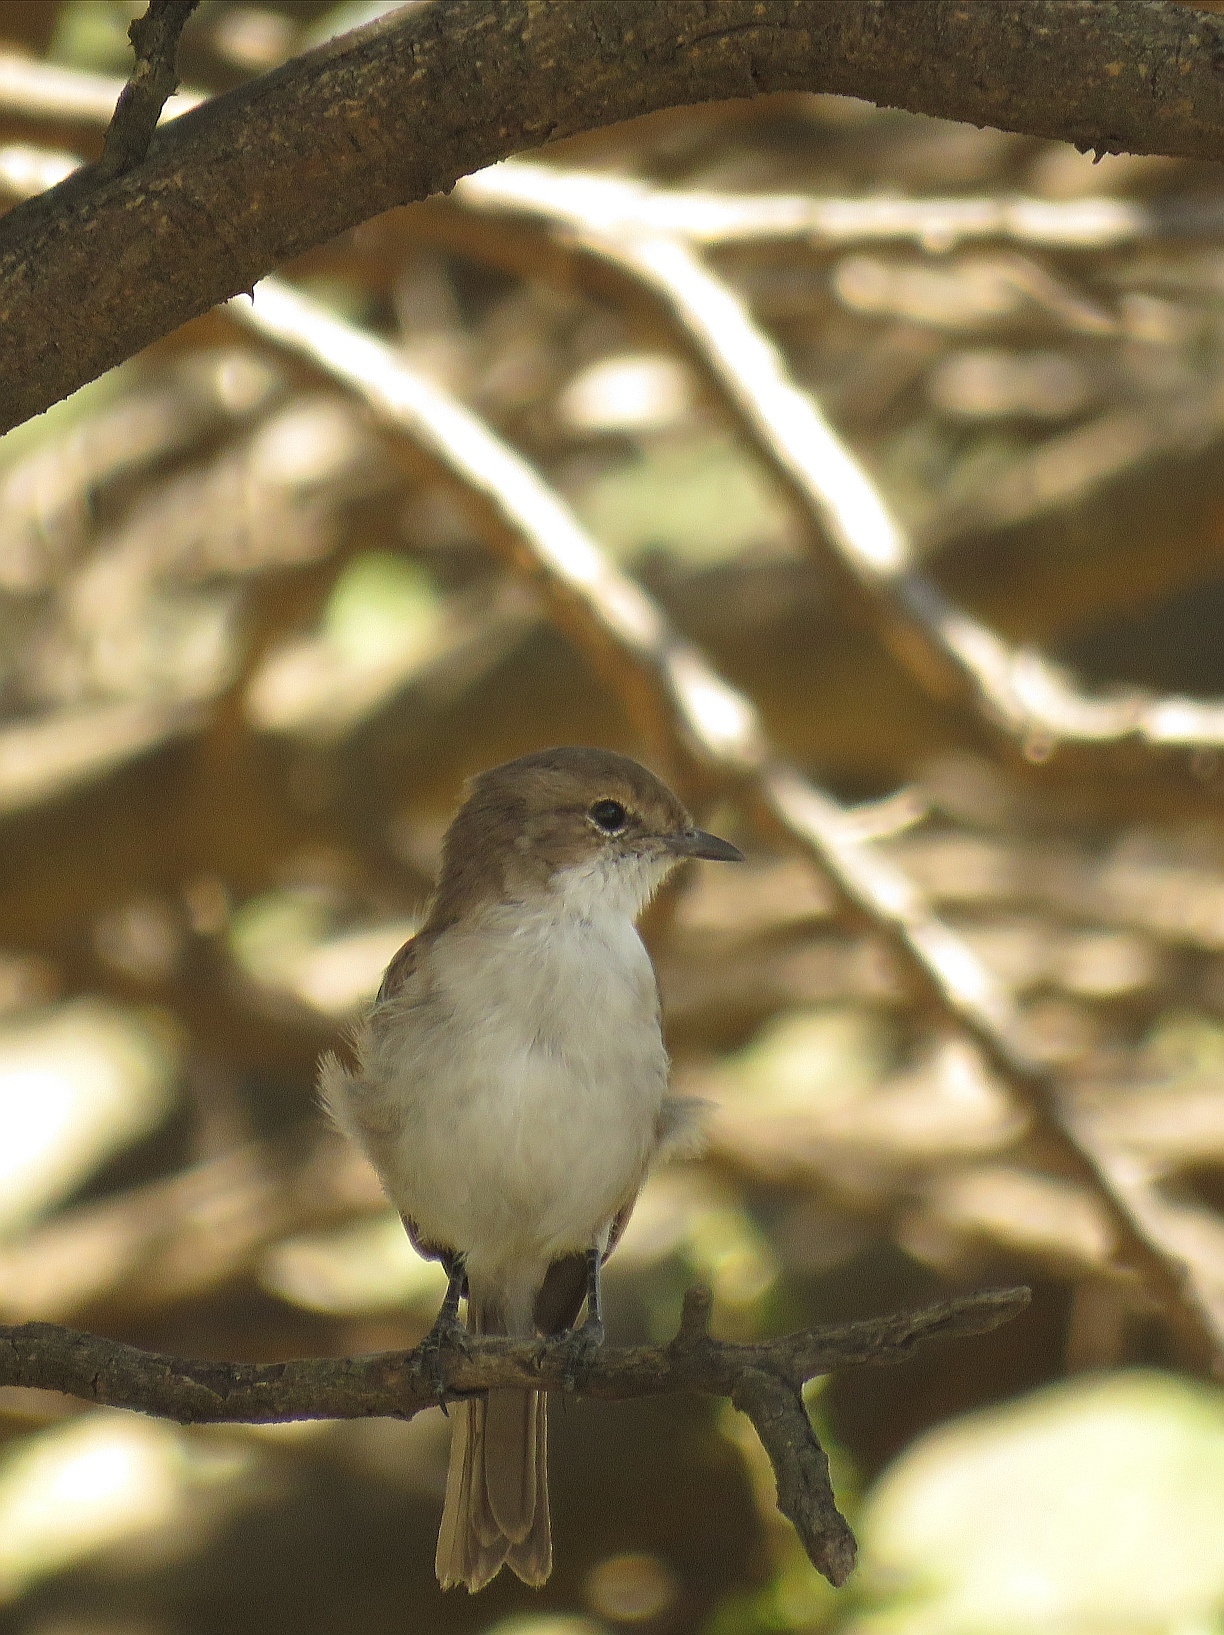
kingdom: Animalia
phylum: Chordata
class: Aves
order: Passeriformes
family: Muscicapidae
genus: Bradornis
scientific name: Bradornis mariquensis
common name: Marico flycatcher
